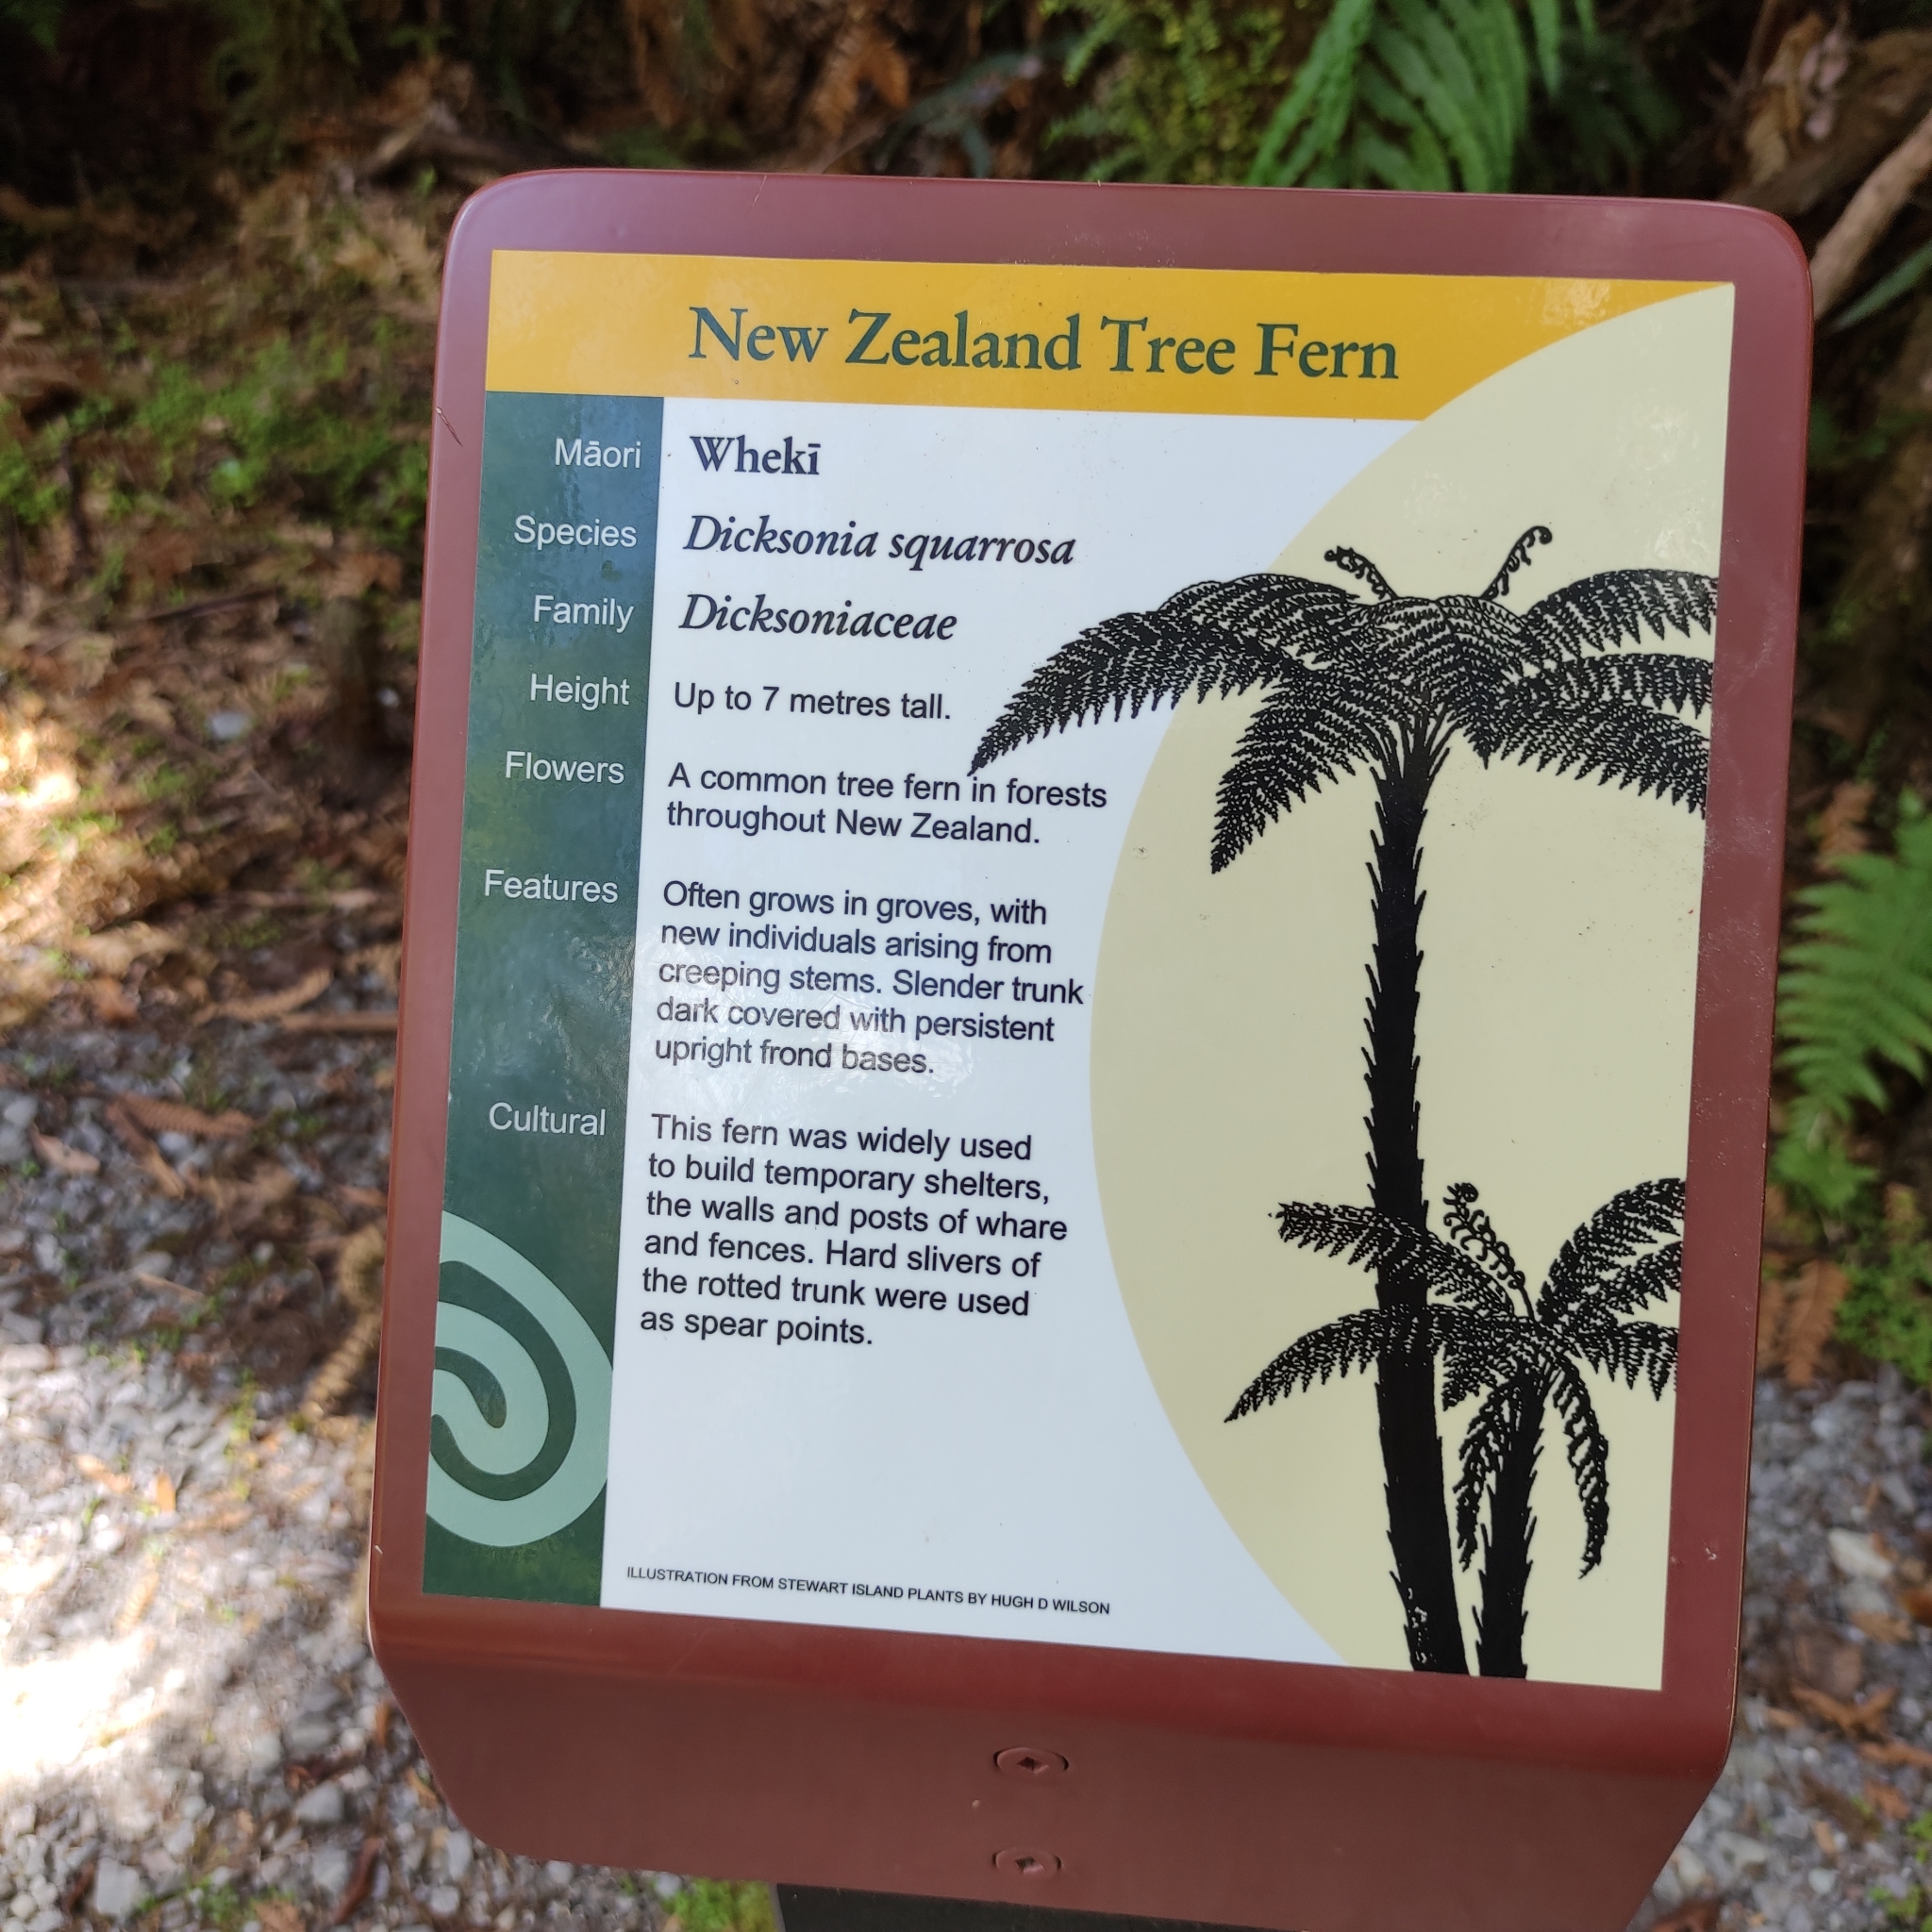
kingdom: Plantae
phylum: Tracheophyta
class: Polypodiopsida
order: Cyatheales
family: Dicksoniaceae
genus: Dicksonia
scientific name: Dicksonia squarrosa
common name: Hard treefern
